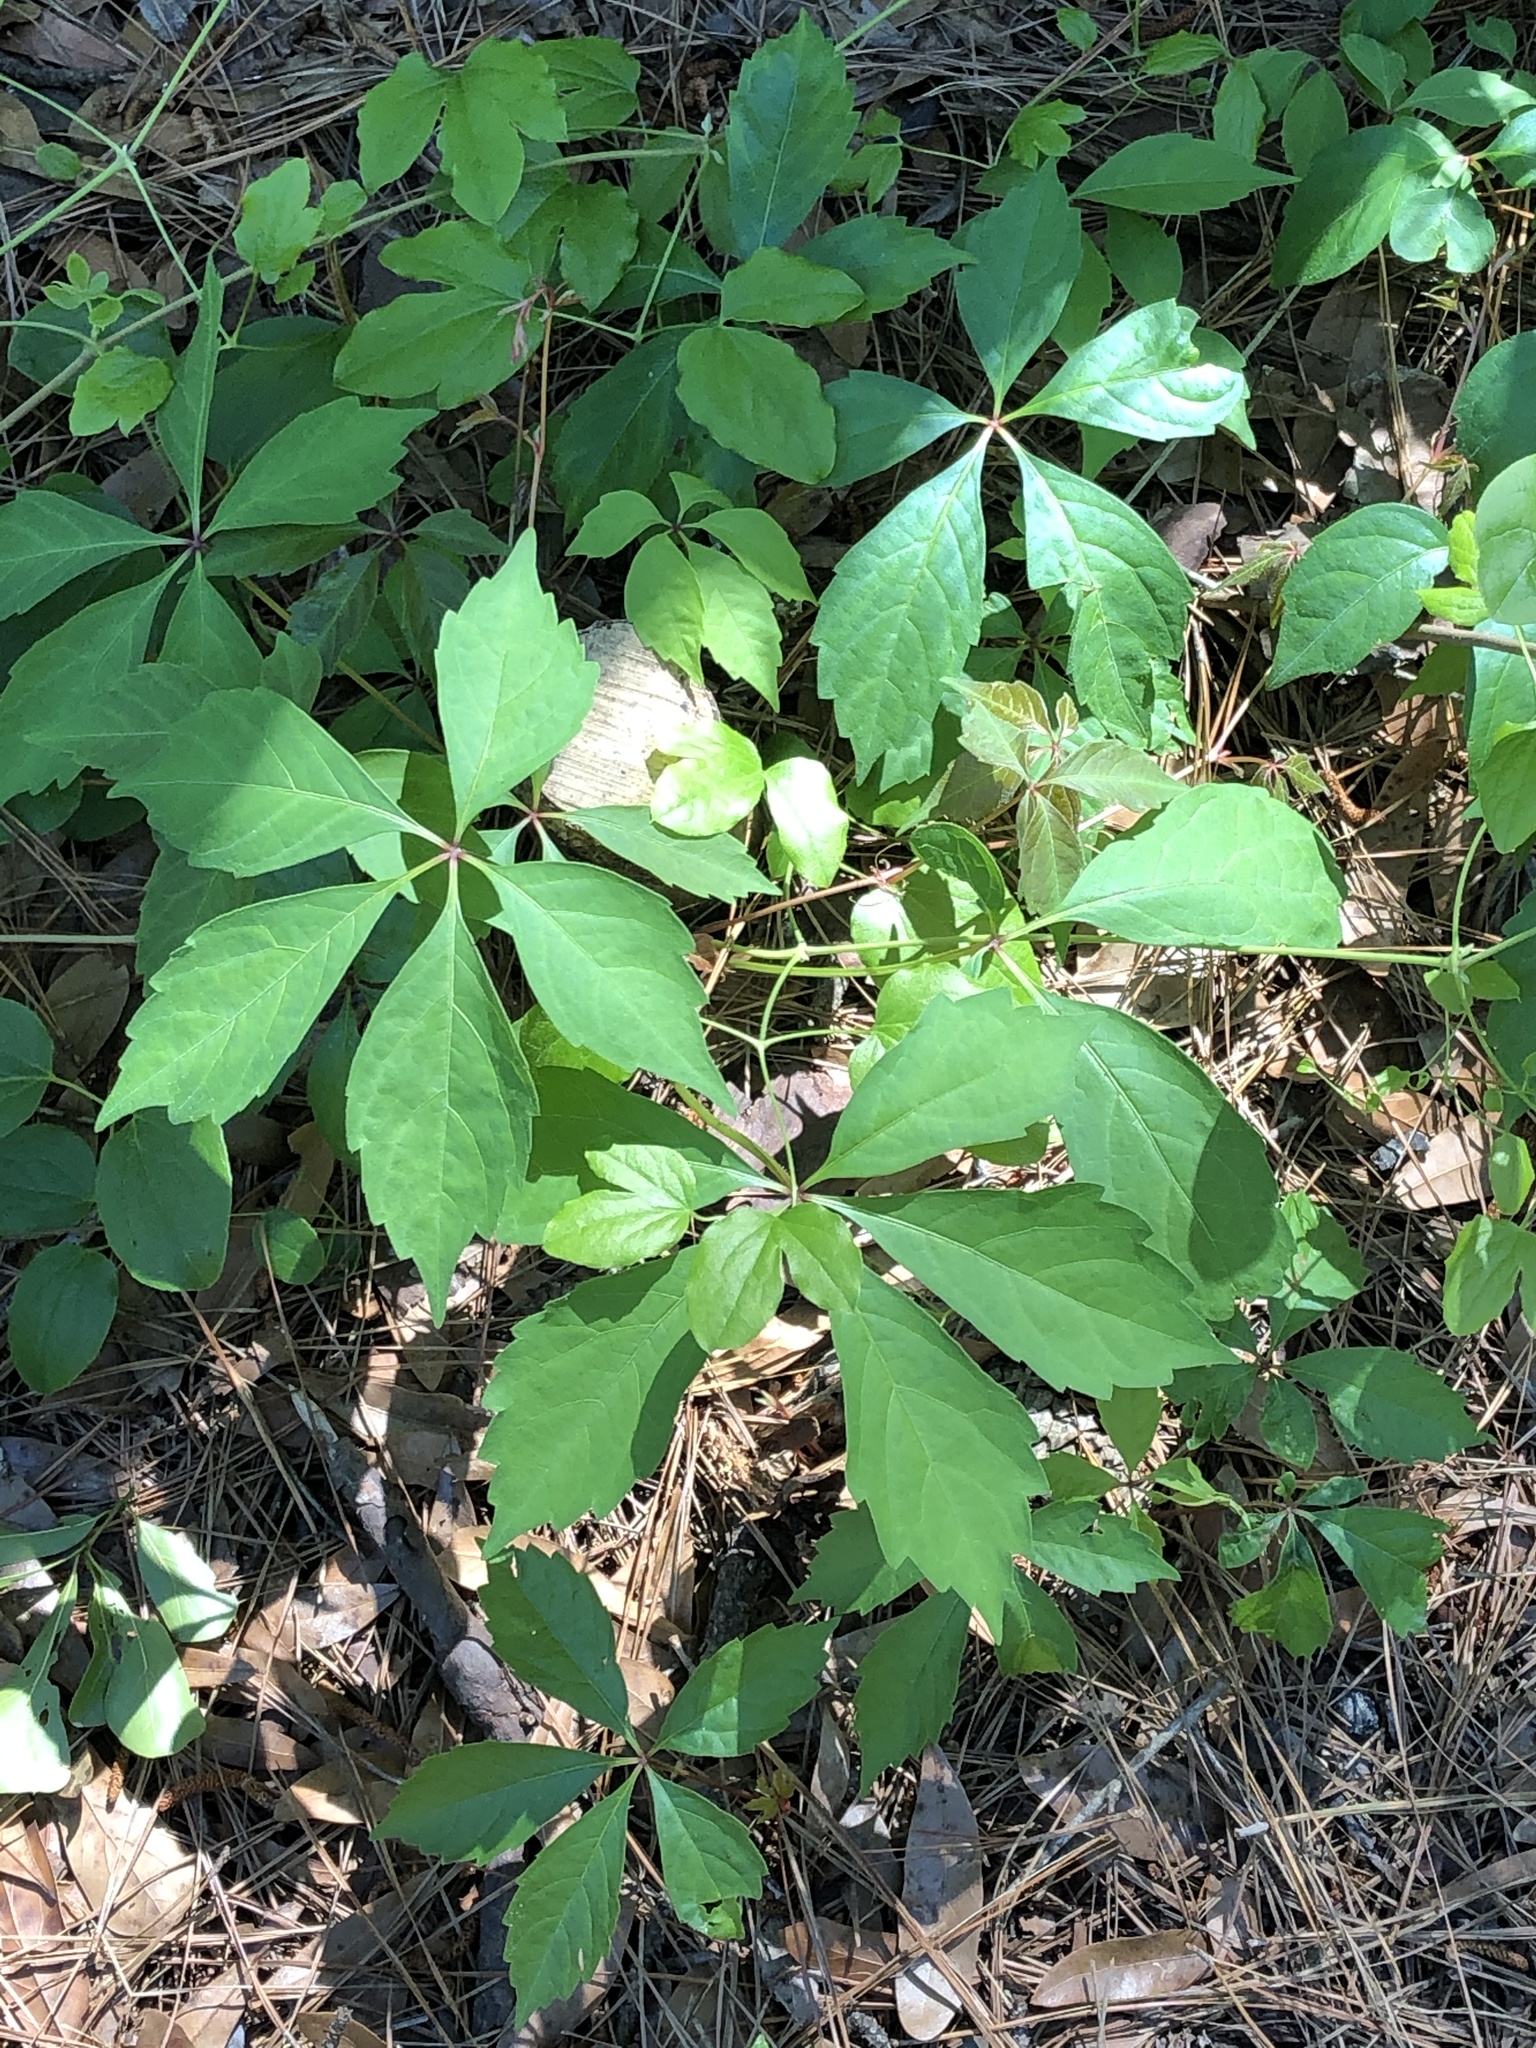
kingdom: Plantae
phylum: Tracheophyta
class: Magnoliopsida
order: Vitales
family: Vitaceae
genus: Parthenocissus
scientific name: Parthenocissus quinquefolia
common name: Virginia-creeper
